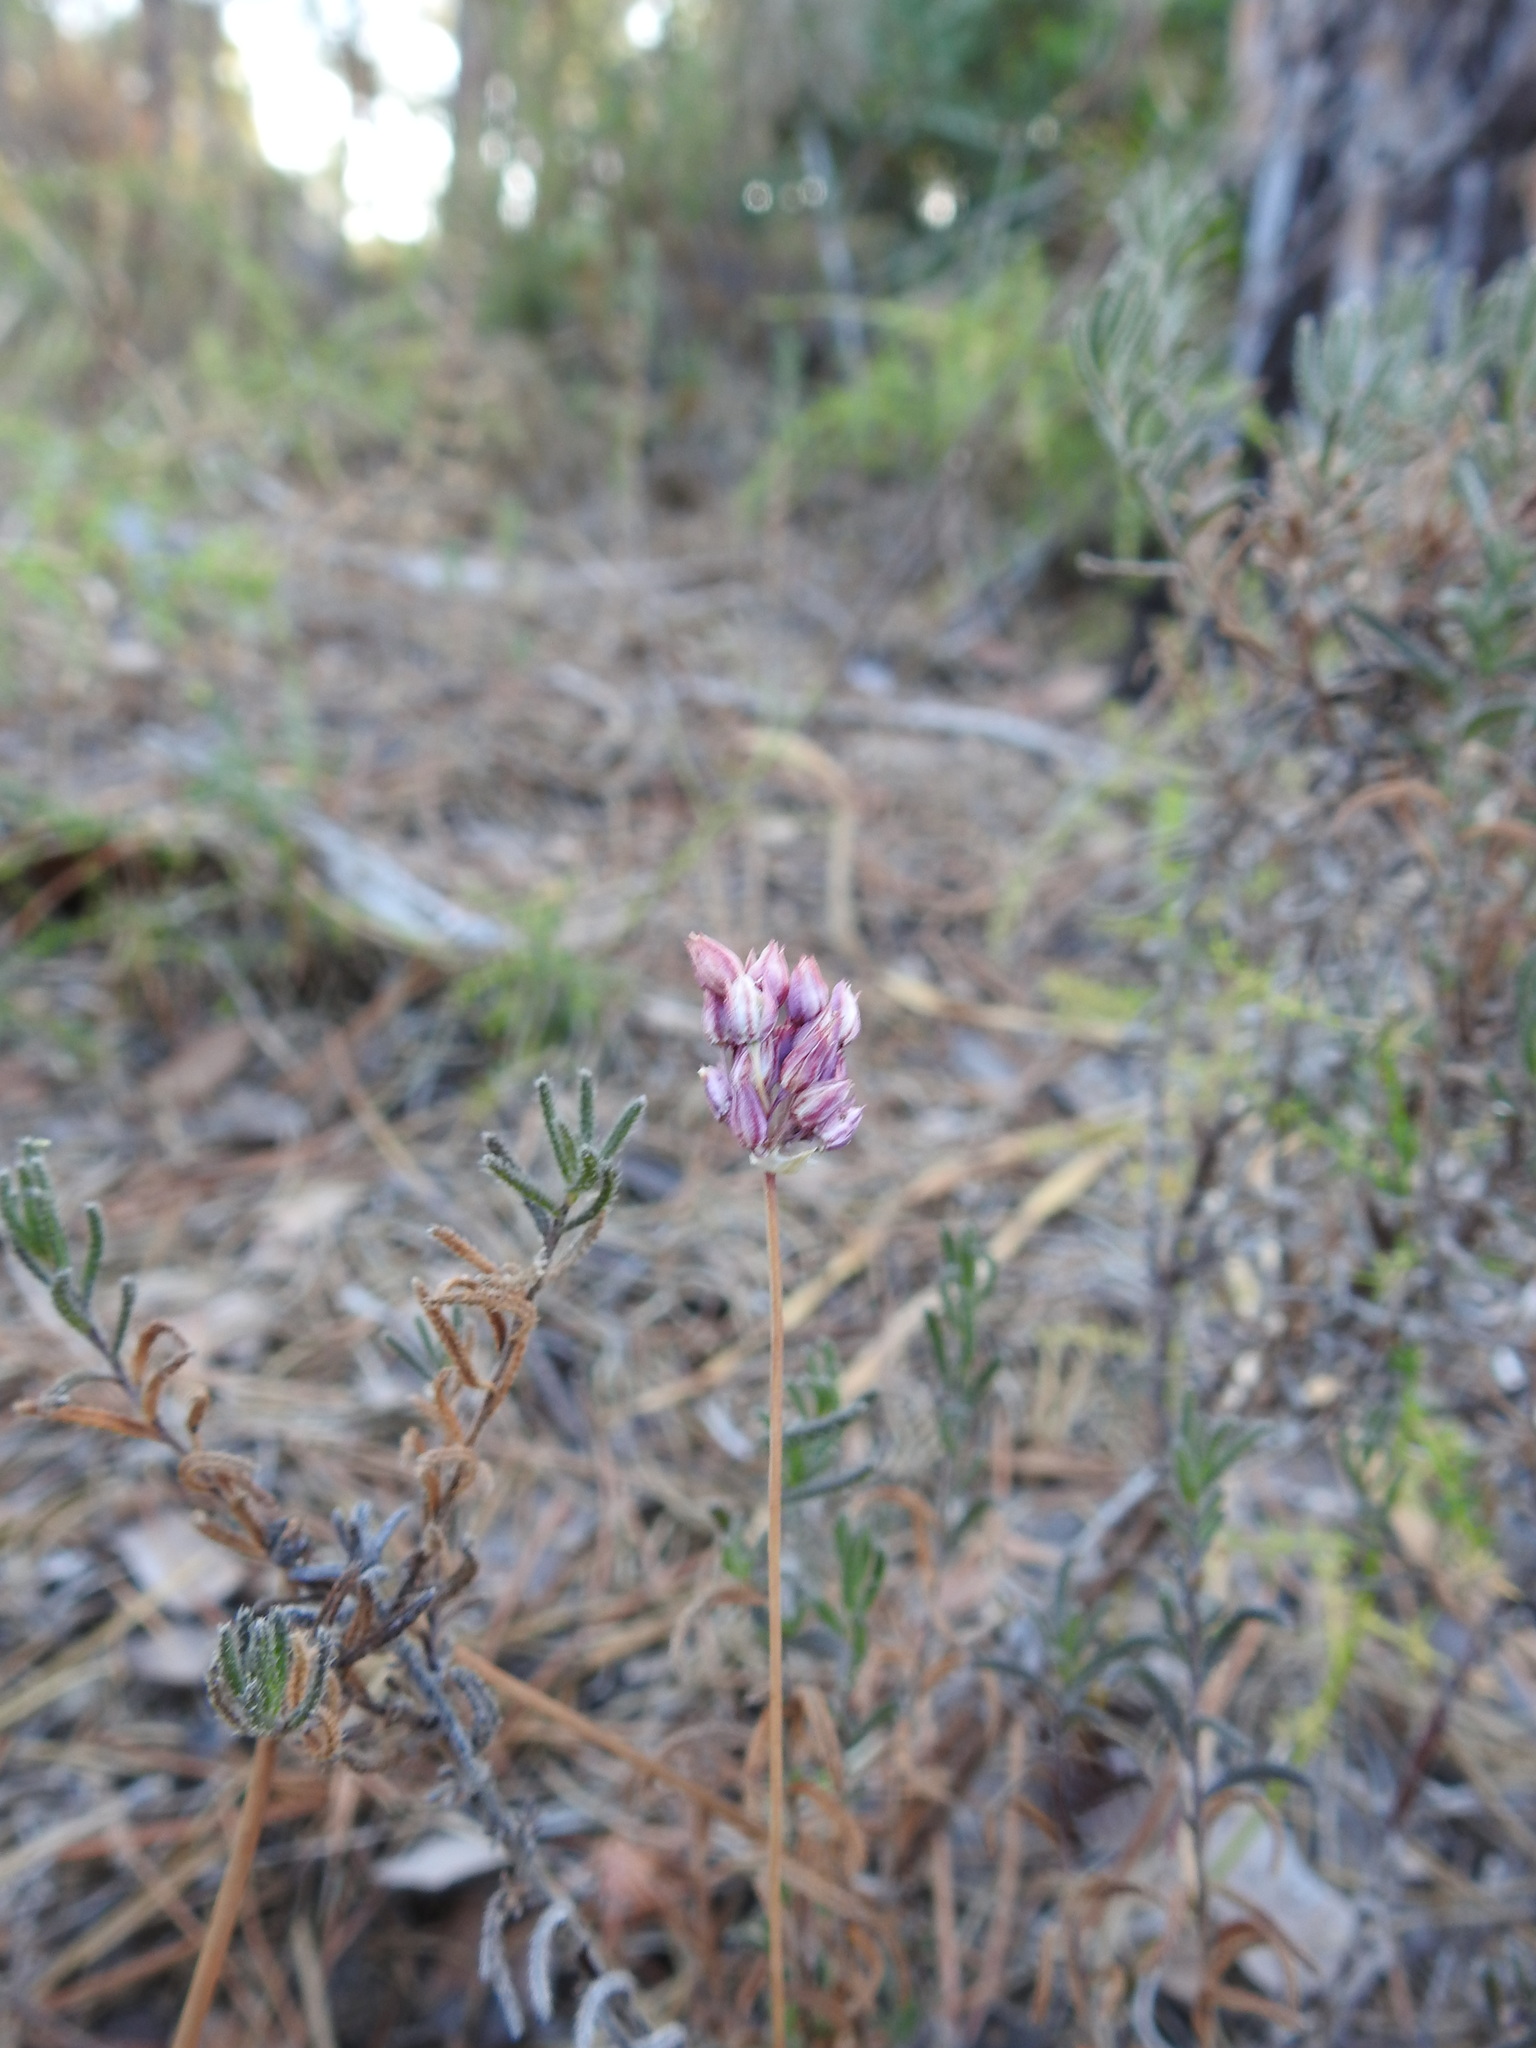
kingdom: Plantae
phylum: Tracheophyta
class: Liliopsida
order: Asparagales
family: Amaryllidaceae
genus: Allium
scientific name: Allium pruinatum
